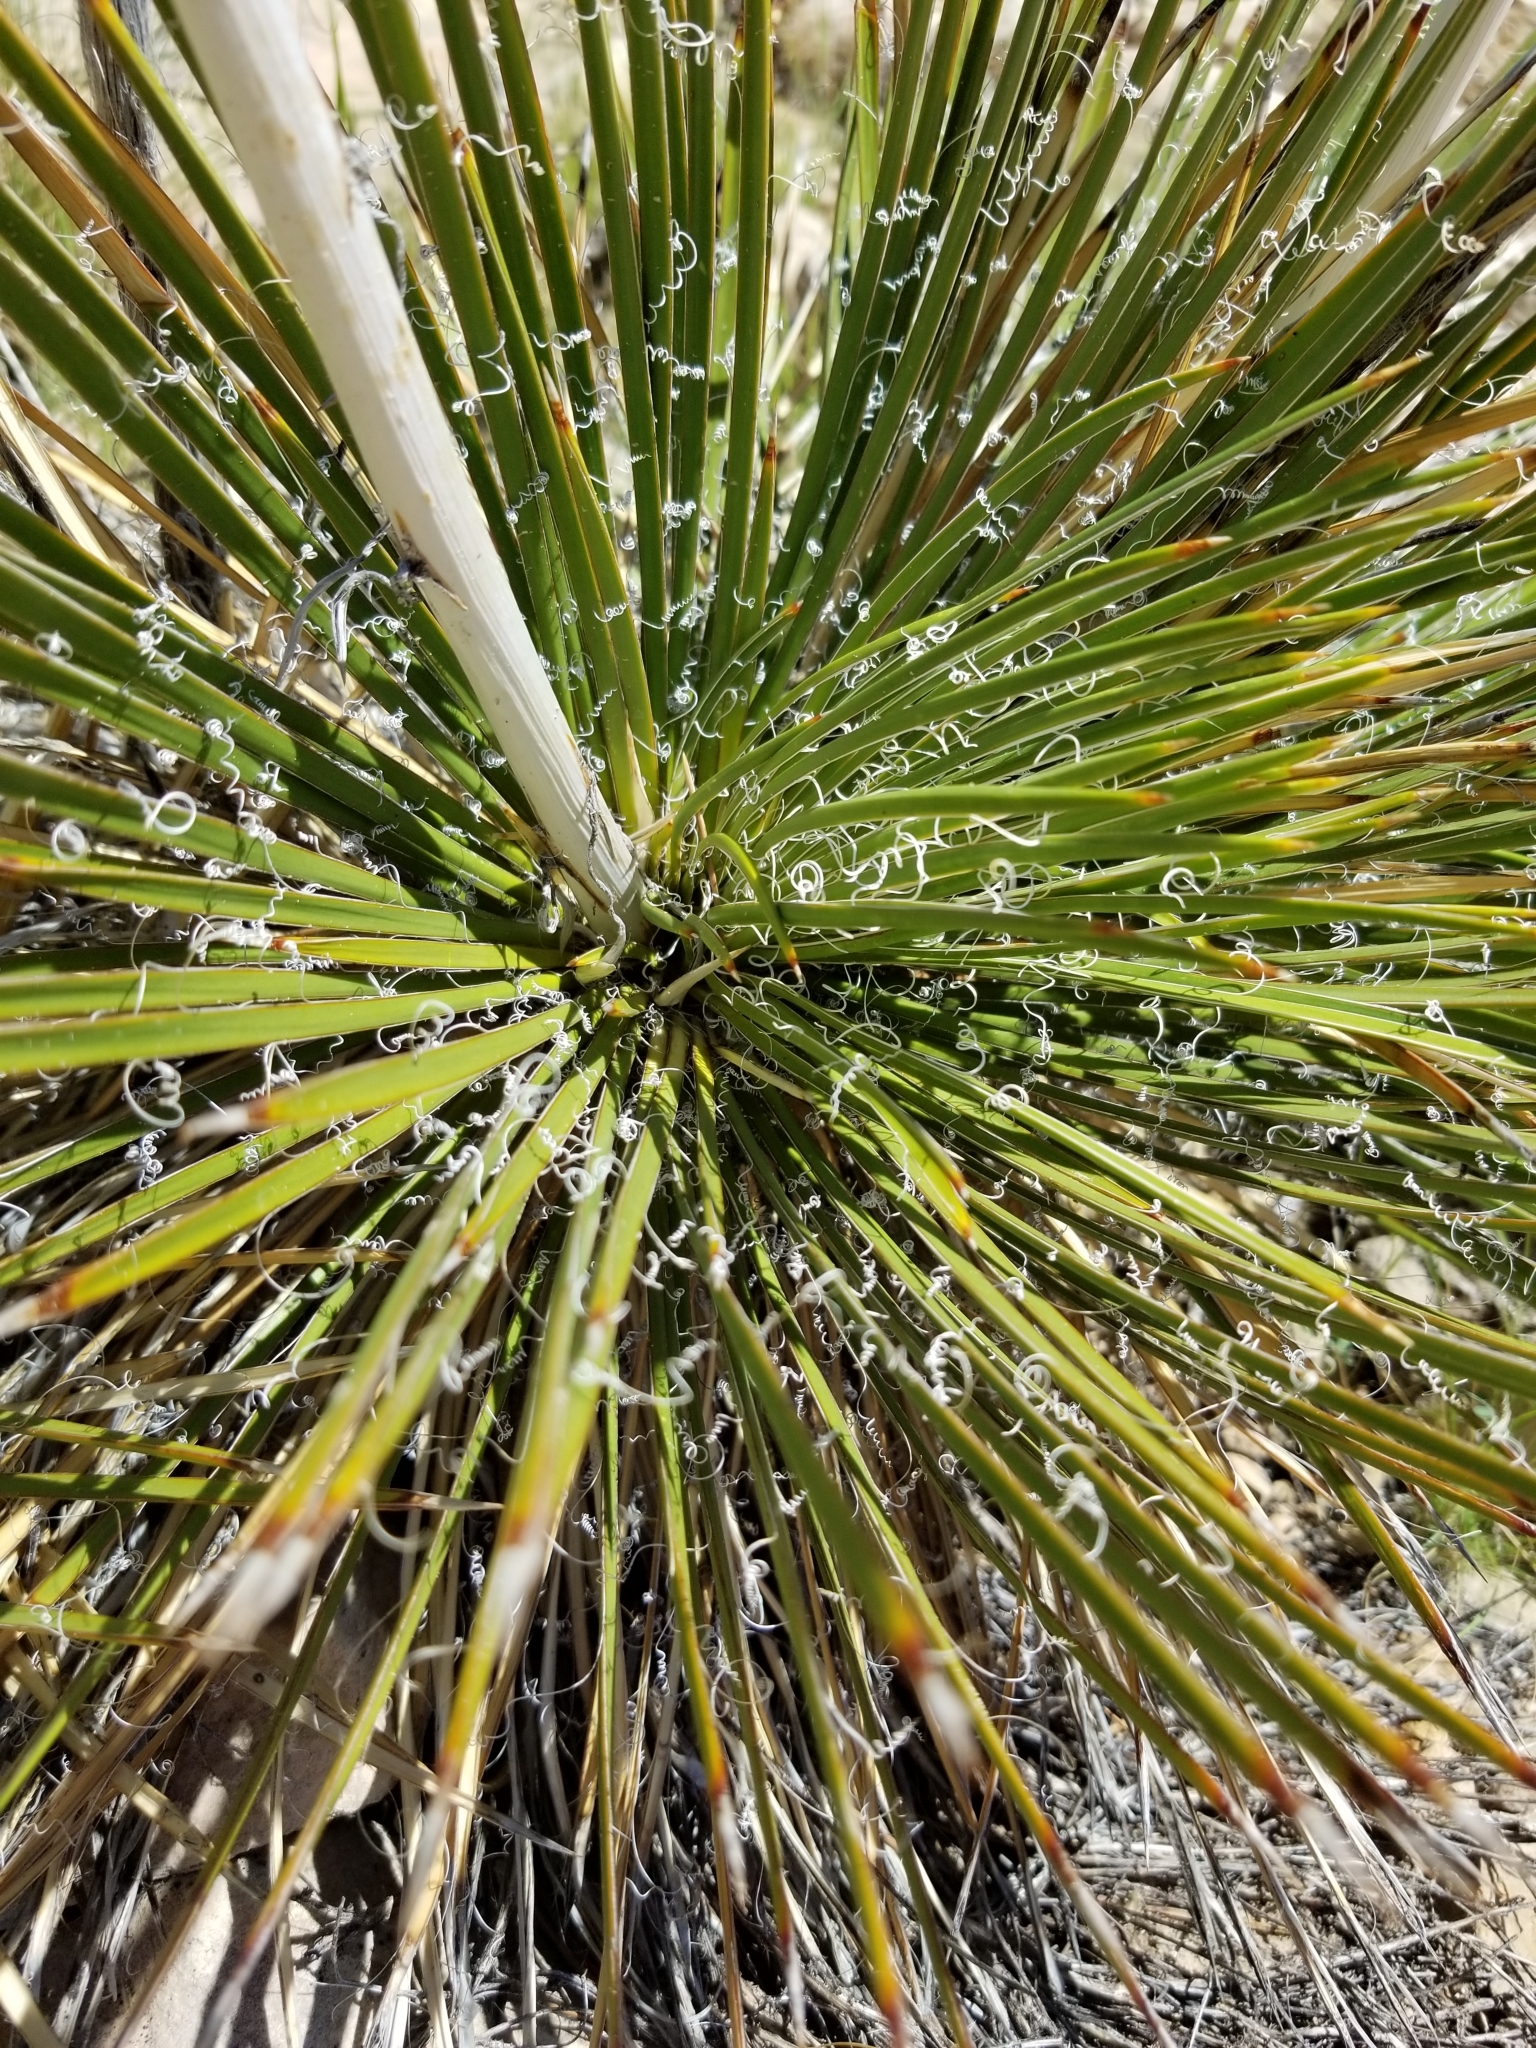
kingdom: Plantae
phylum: Tracheophyta
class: Liliopsida
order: Asparagales
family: Asparagaceae
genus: Yucca
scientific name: Yucca angustissima
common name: Narrowleaf yucca
